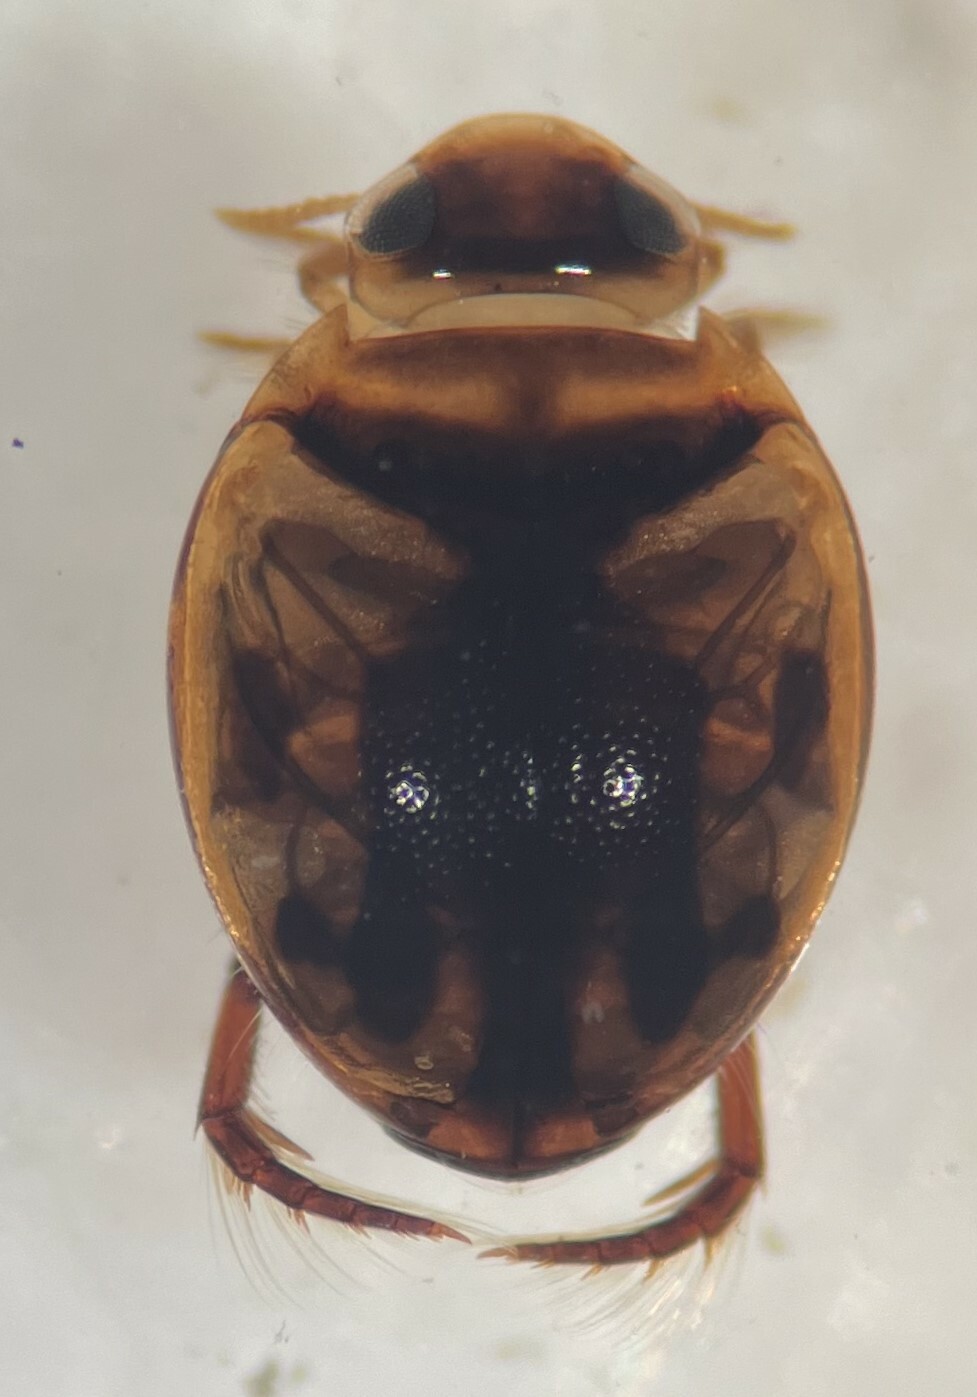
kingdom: Animalia
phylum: Arthropoda
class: Insecta
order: Coleoptera
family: Dytiscidae
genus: Desmopachria
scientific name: Desmopachria mexicana
